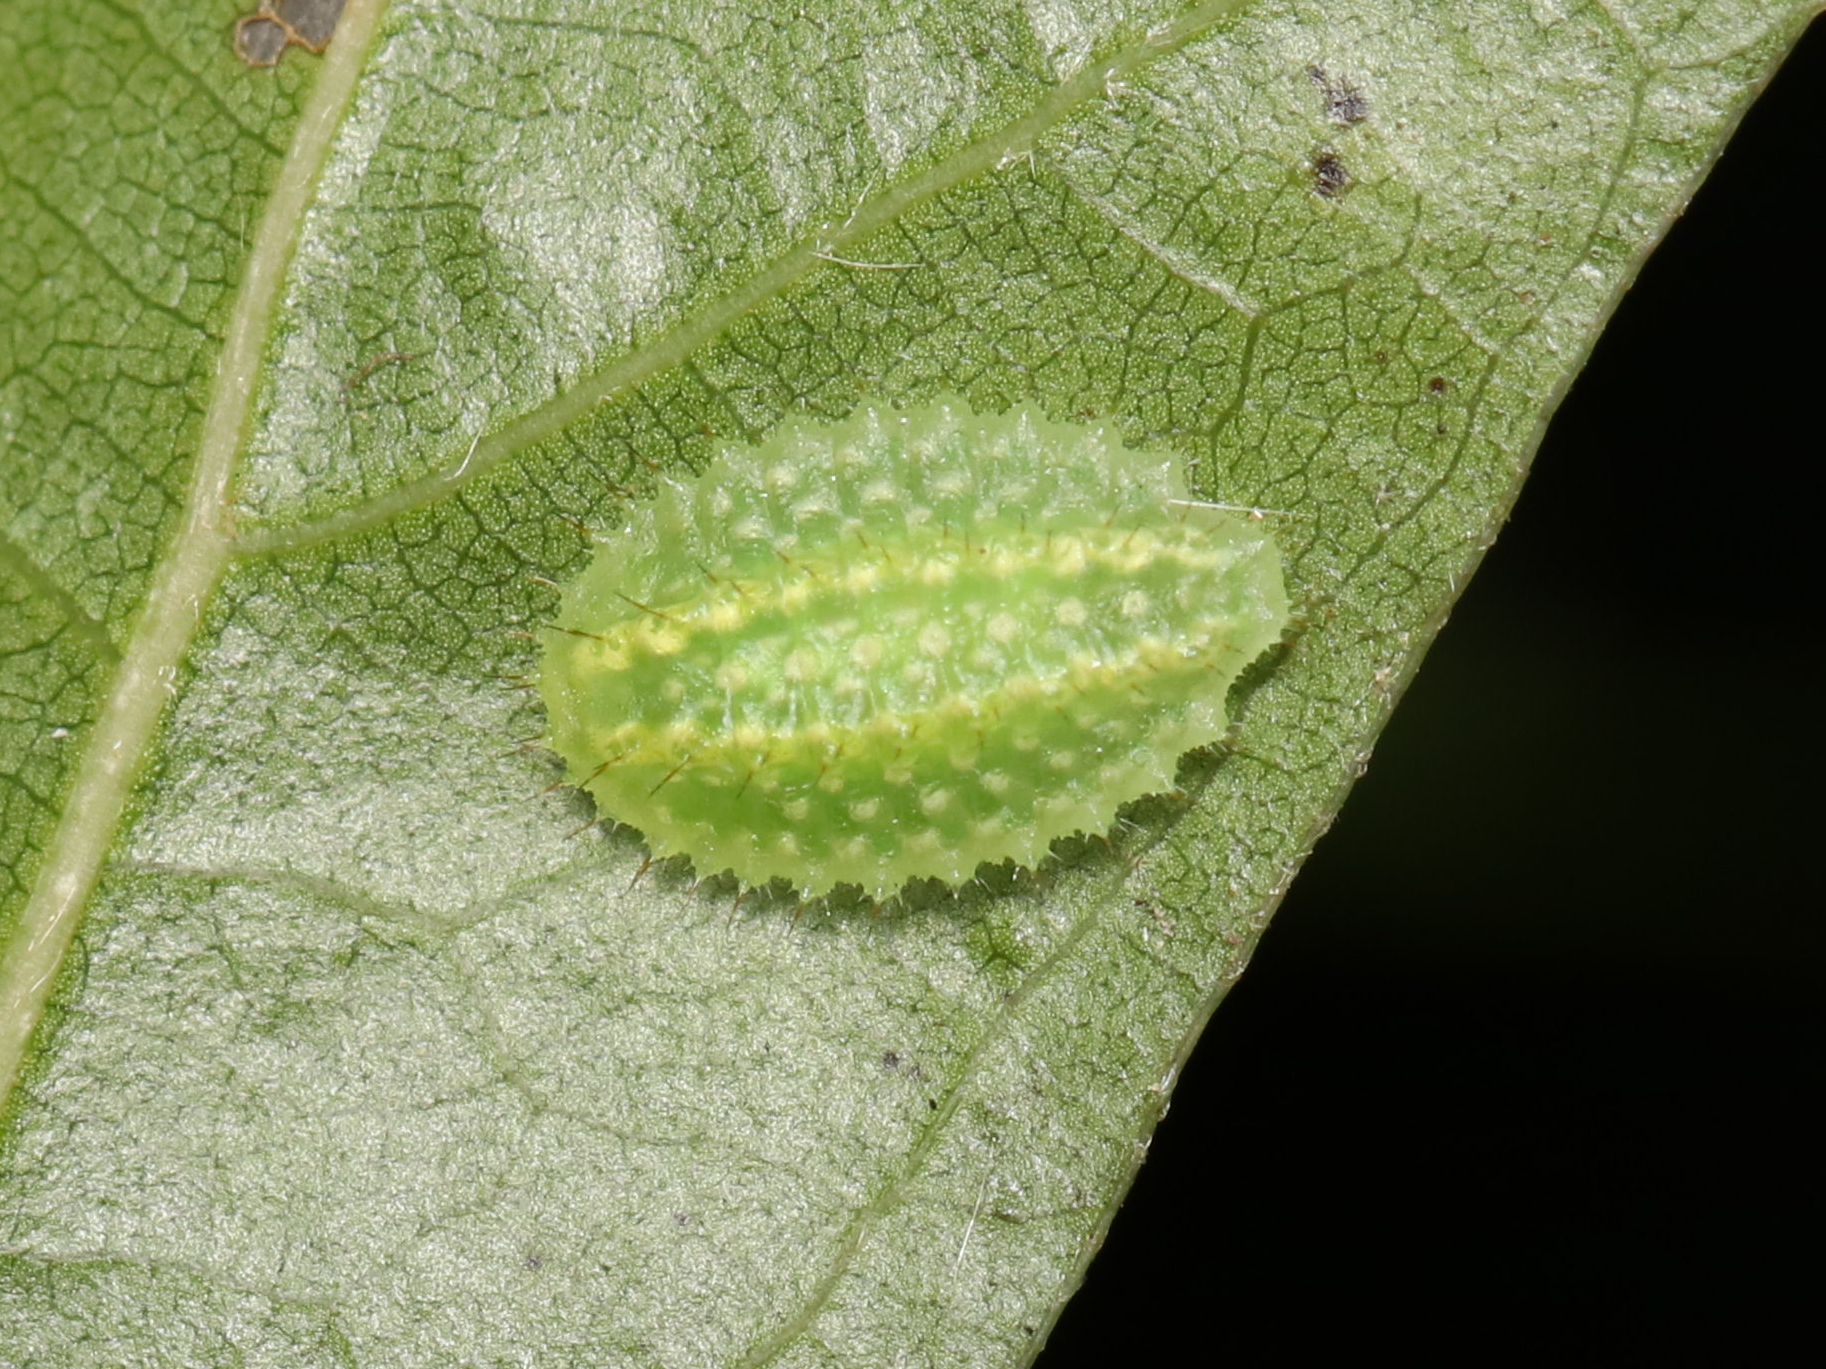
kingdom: Animalia
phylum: Arthropoda
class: Insecta
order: Lepidoptera
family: Limacodidae
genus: Lithacodes
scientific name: Lithacodes fasciola
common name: Yellow-shouldered slug moth
